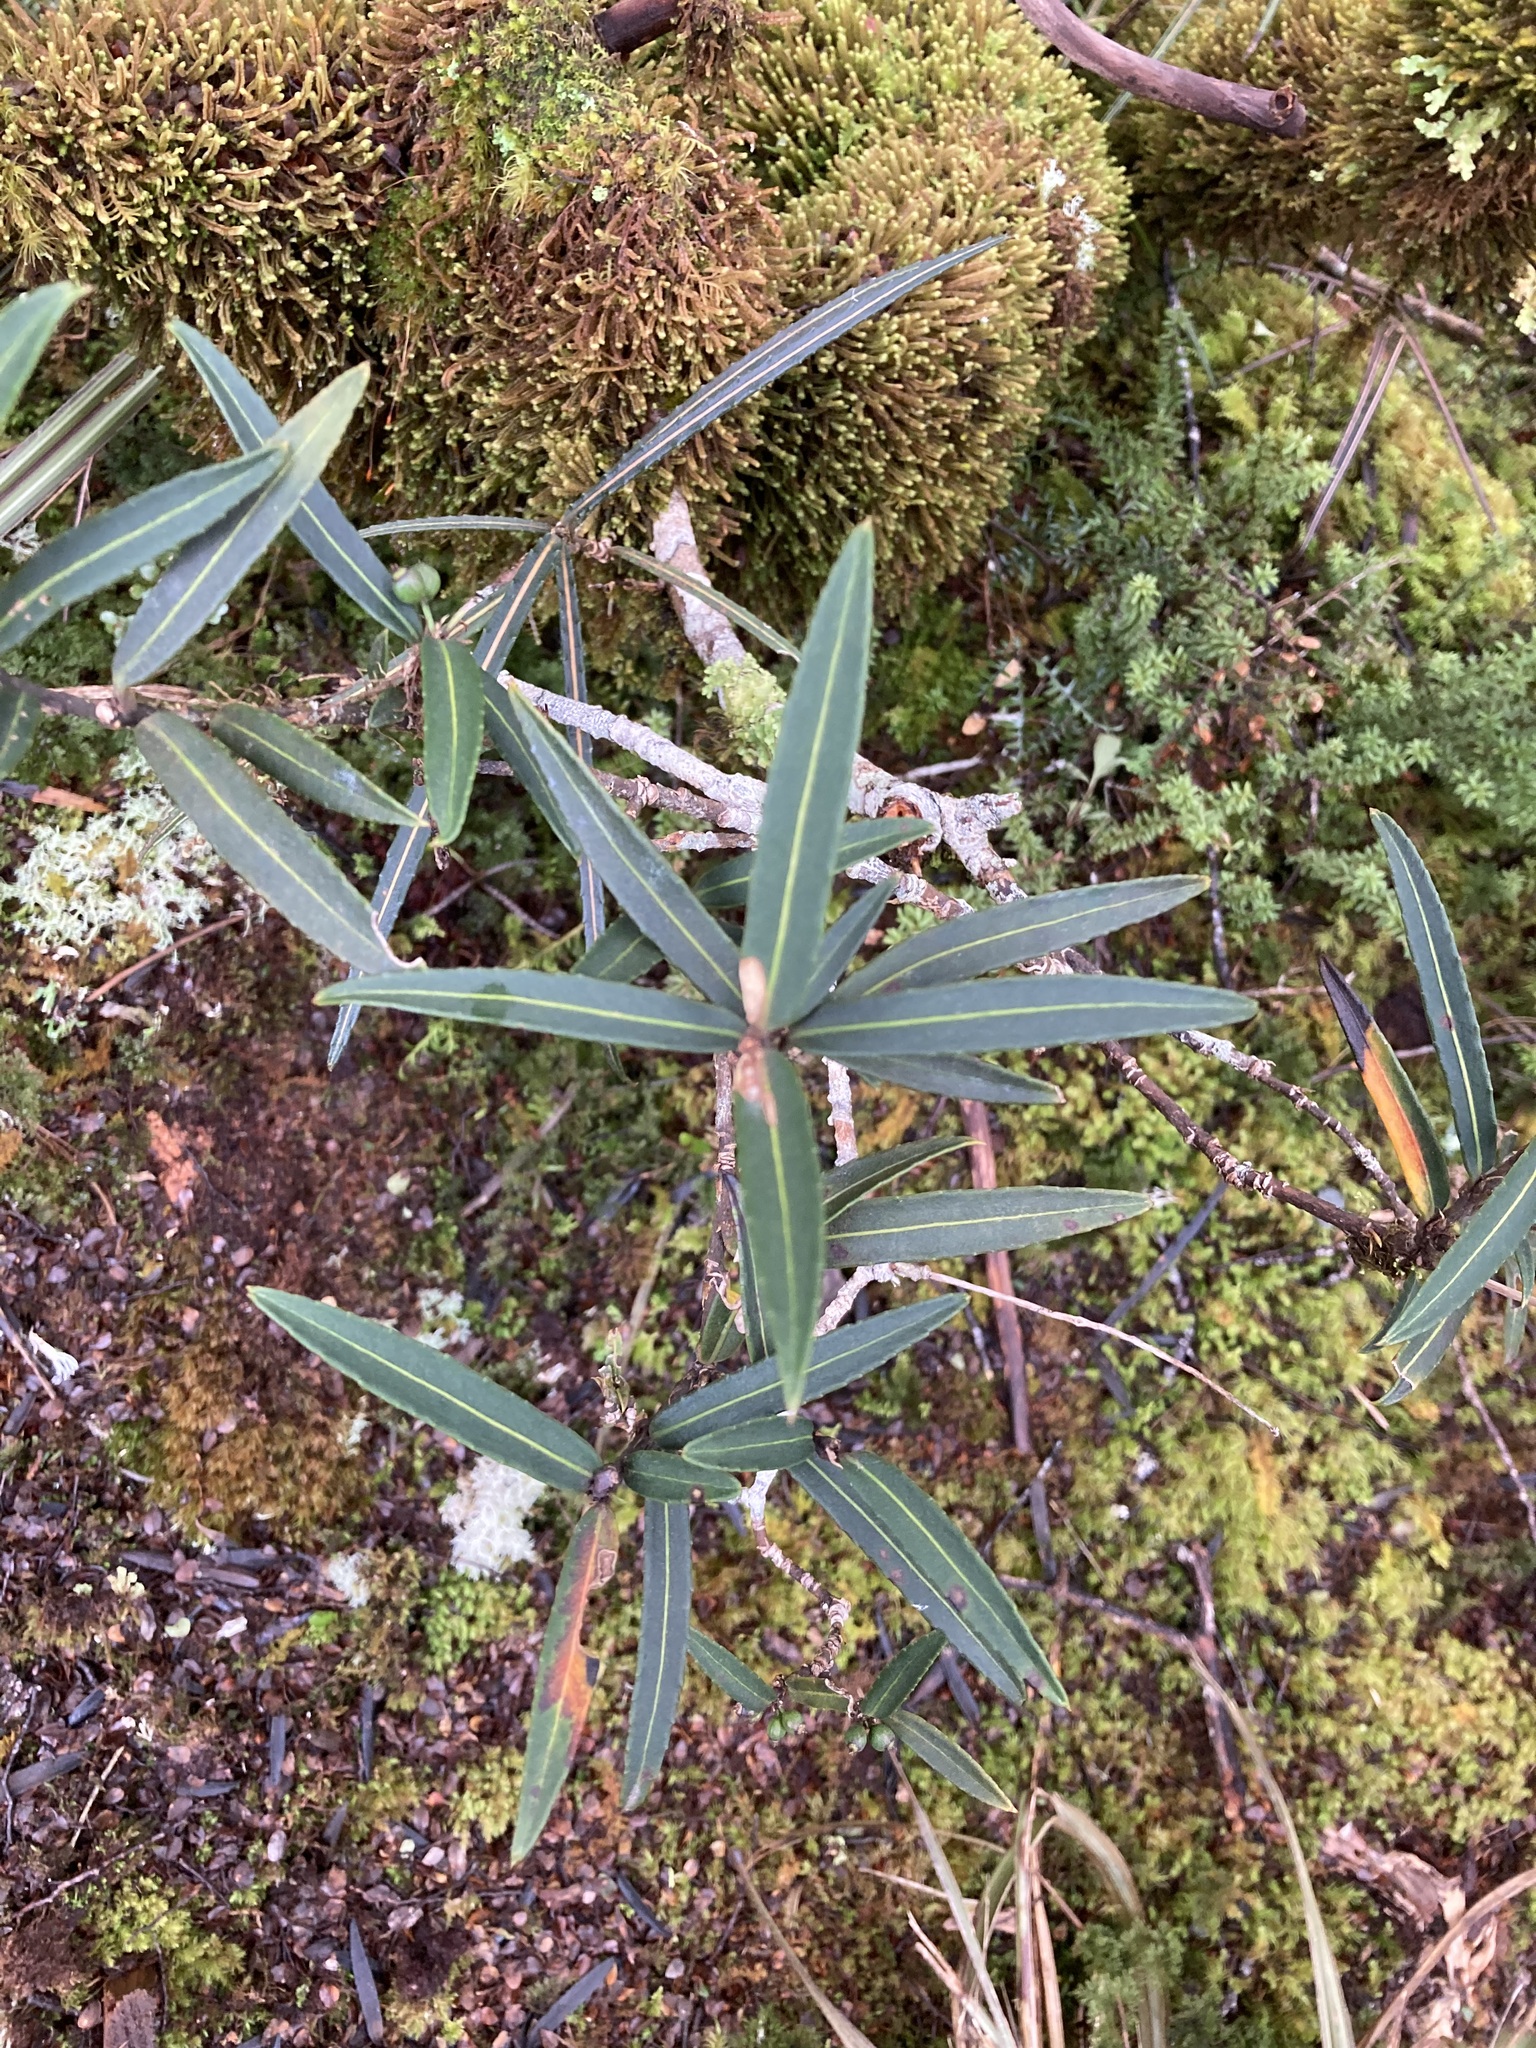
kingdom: Plantae
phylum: Tracheophyta
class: Magnoliopsida
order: Apiales
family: Araliaceae
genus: Pseudopanax
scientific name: Pseudopanax linearis
